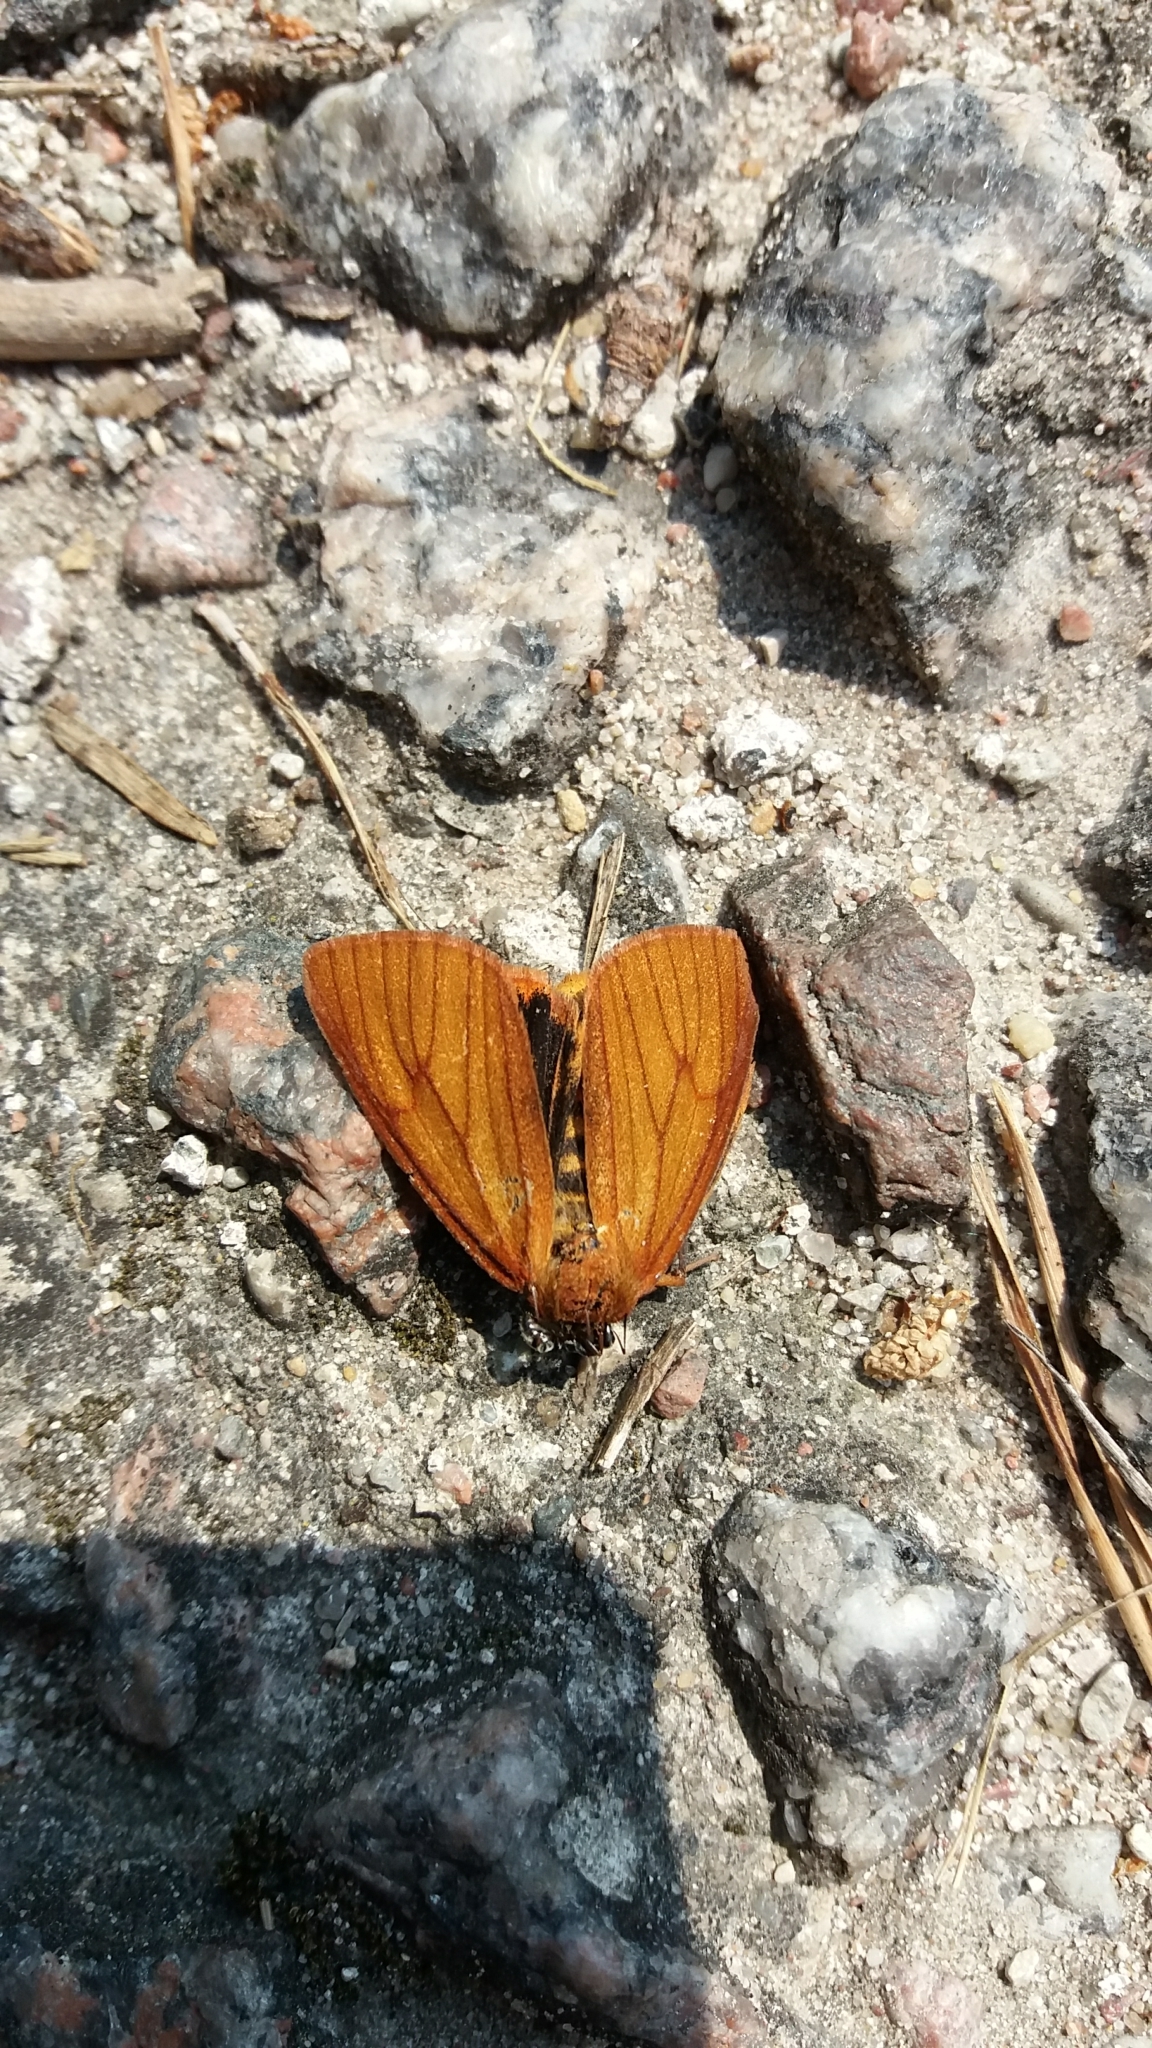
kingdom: Animalia
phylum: Arthropoda
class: Insecta
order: Lepidoptera
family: Erebidae
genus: Diacrisia
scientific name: Diacrisia sannio
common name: Clouded buff
